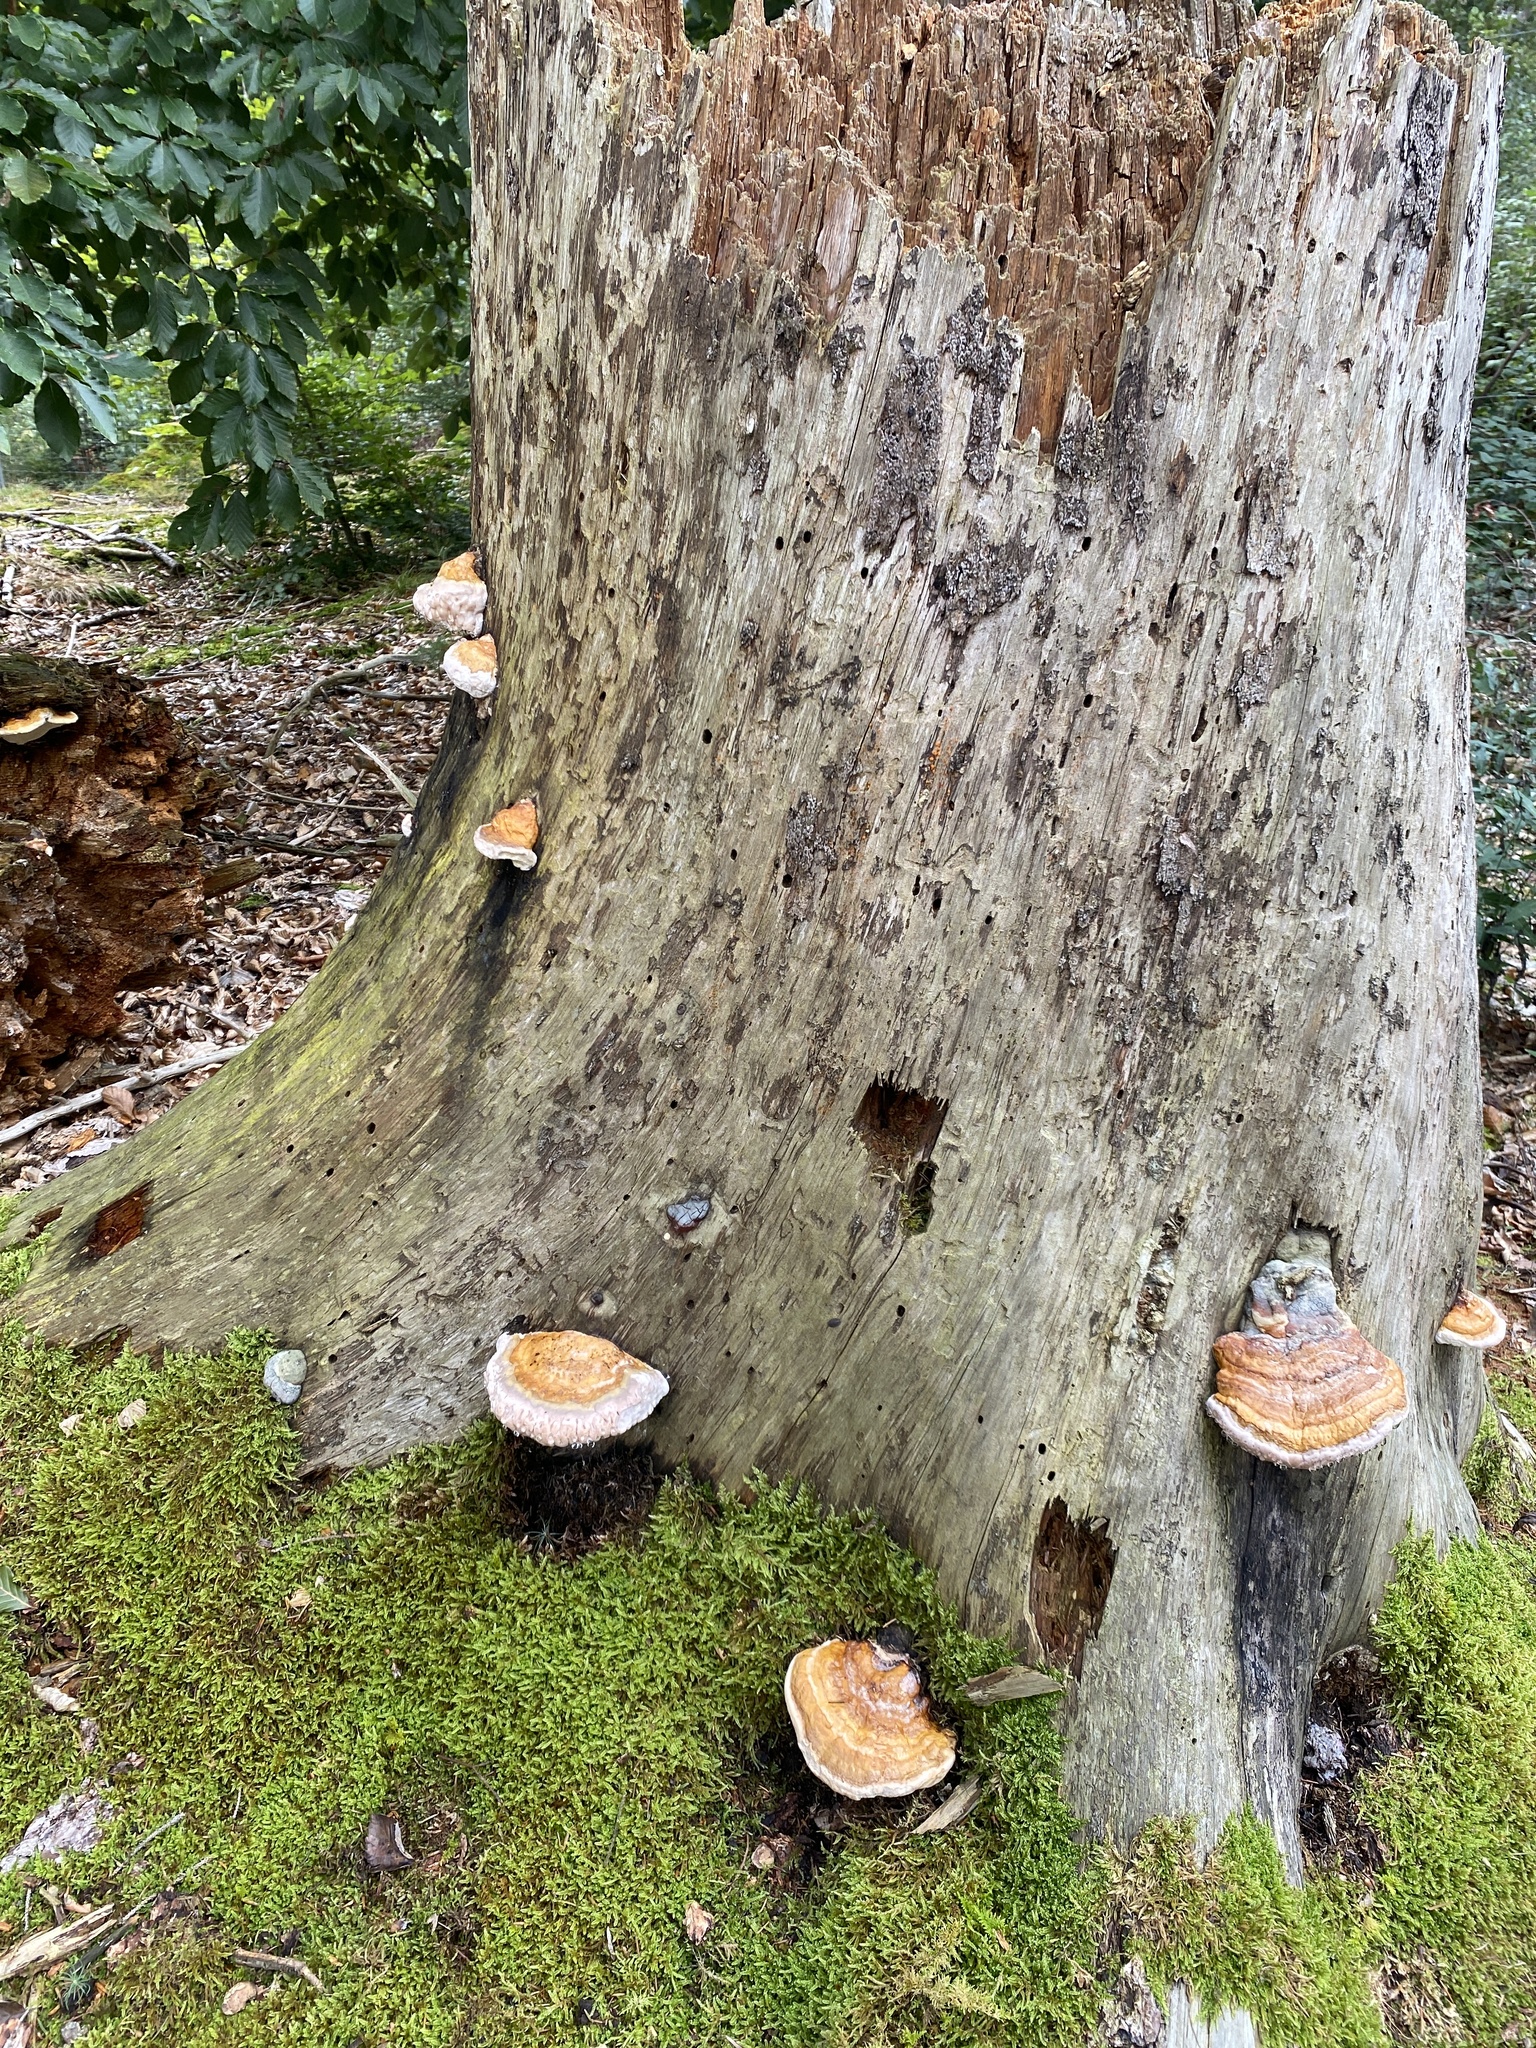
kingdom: Fungi
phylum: Basidiomycota
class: Agaricomycetes
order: Polyporales
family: Fomitopsidaceae
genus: Fomitopsis
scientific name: Fomitopsis pinicola
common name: Red-belted bracket
